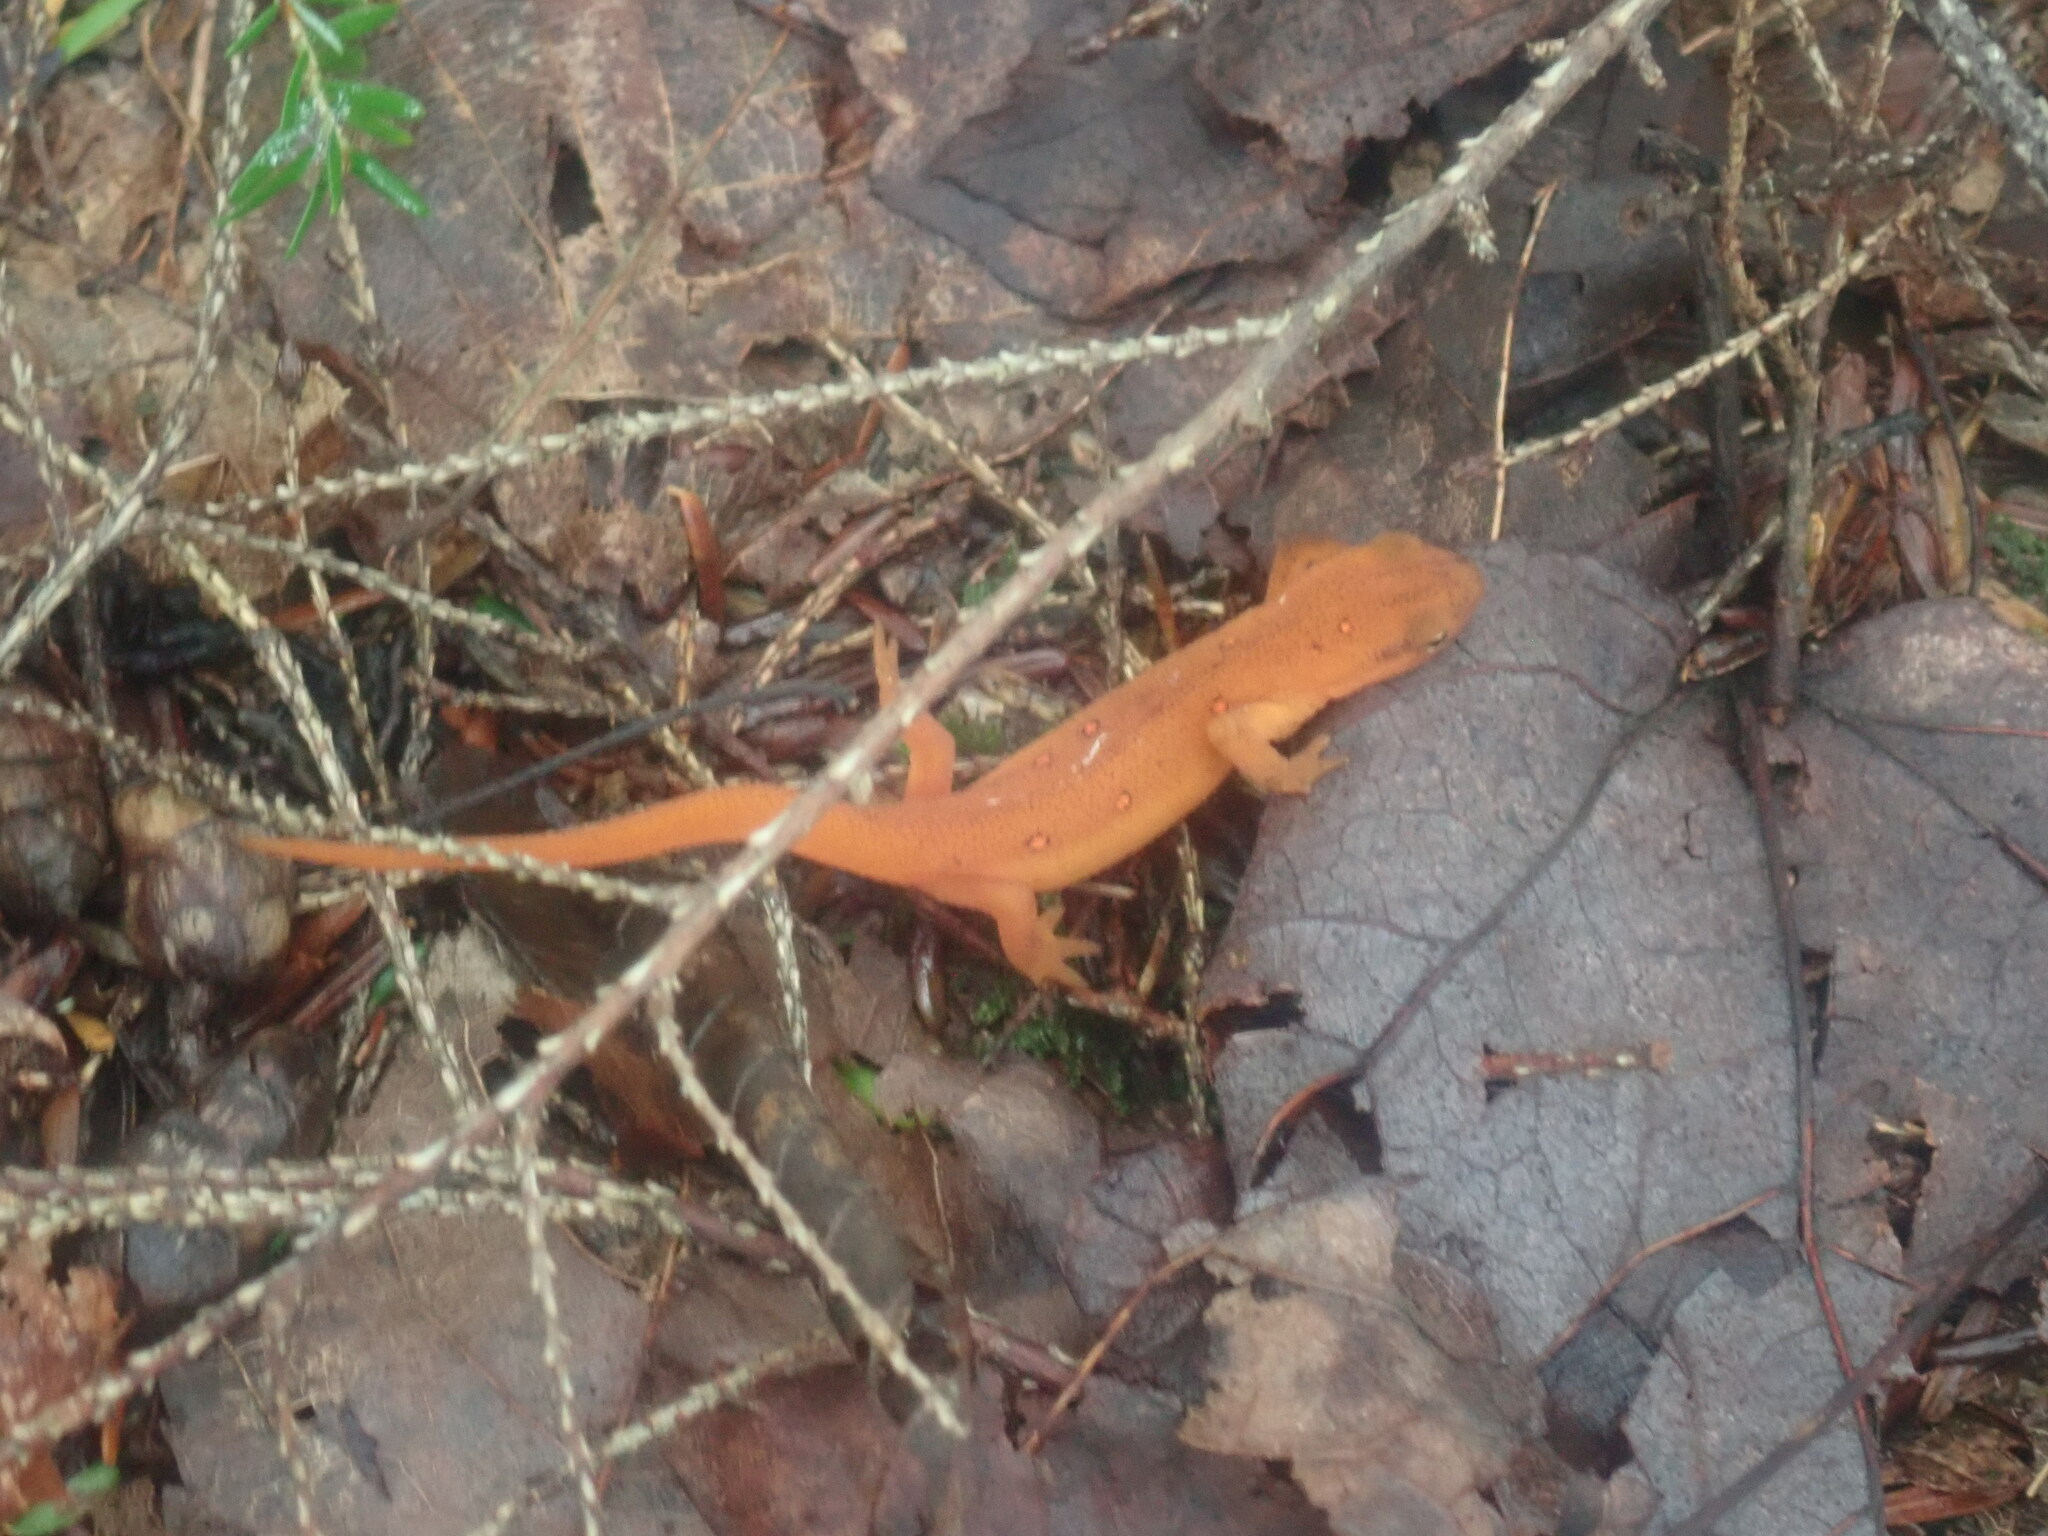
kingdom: Animalia
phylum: Chordata
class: Amphibia
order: Caudata
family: Salamandridae
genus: Notophthalmus
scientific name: Notophthalmus viridescens
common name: Eastern newt
